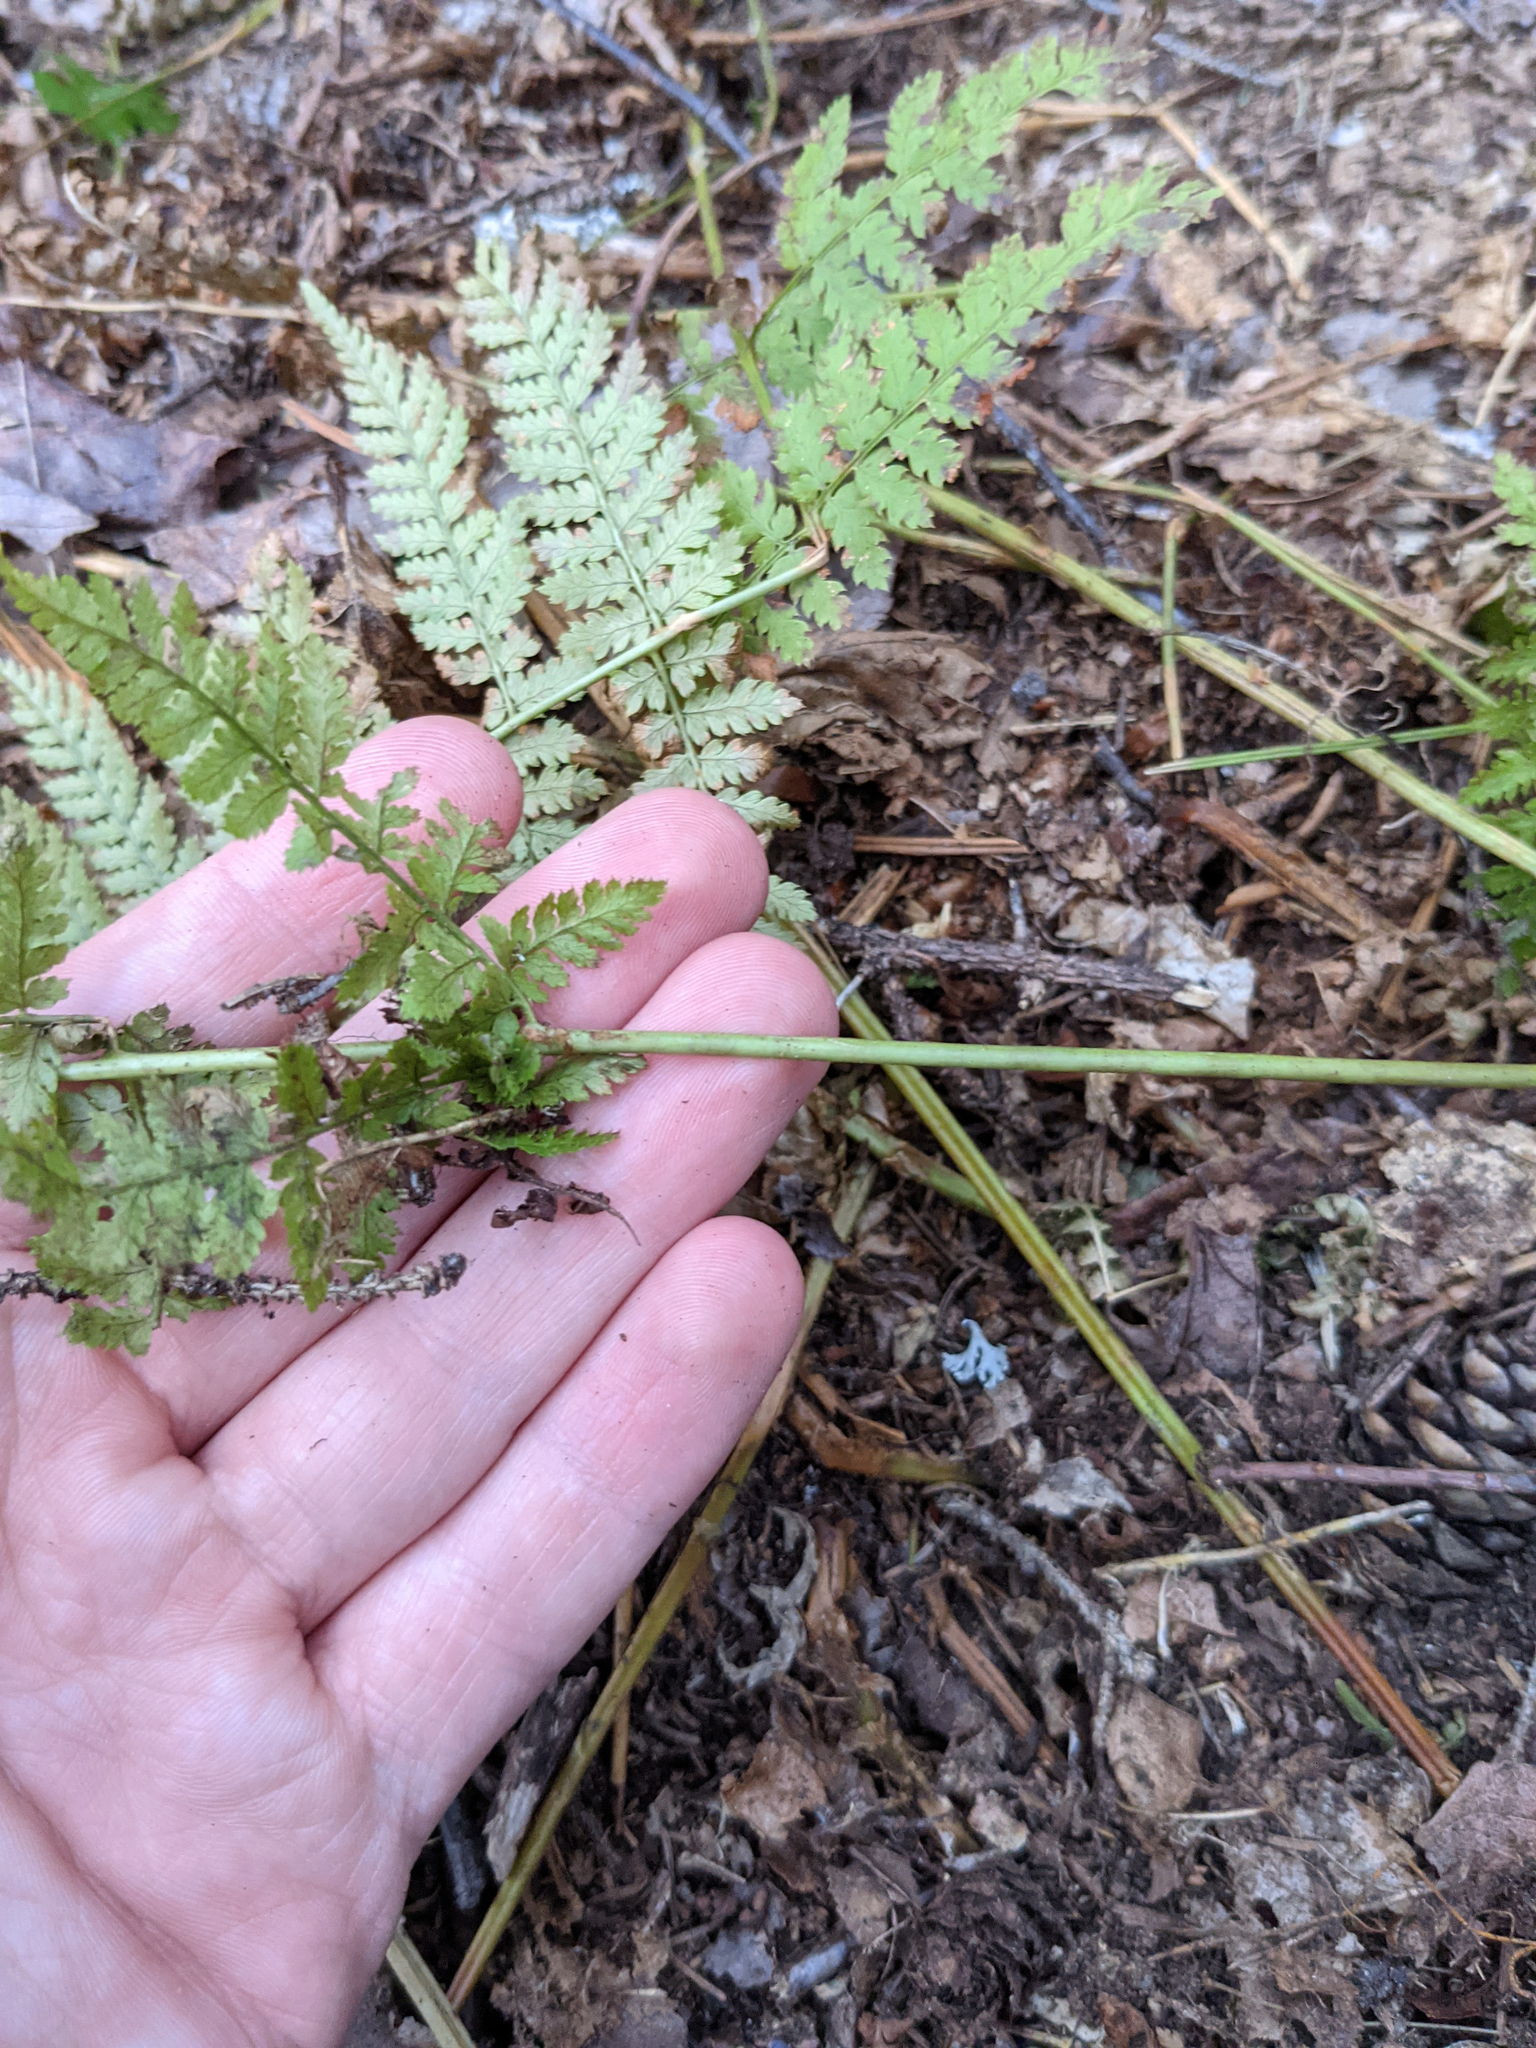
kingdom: Plantae
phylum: Tracheophyta
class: Polypodiopsida
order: Polypodiales
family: Dryopteridaceae
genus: Dryopteris
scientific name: Dryopteris intermedia
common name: Evergreen wood fern
